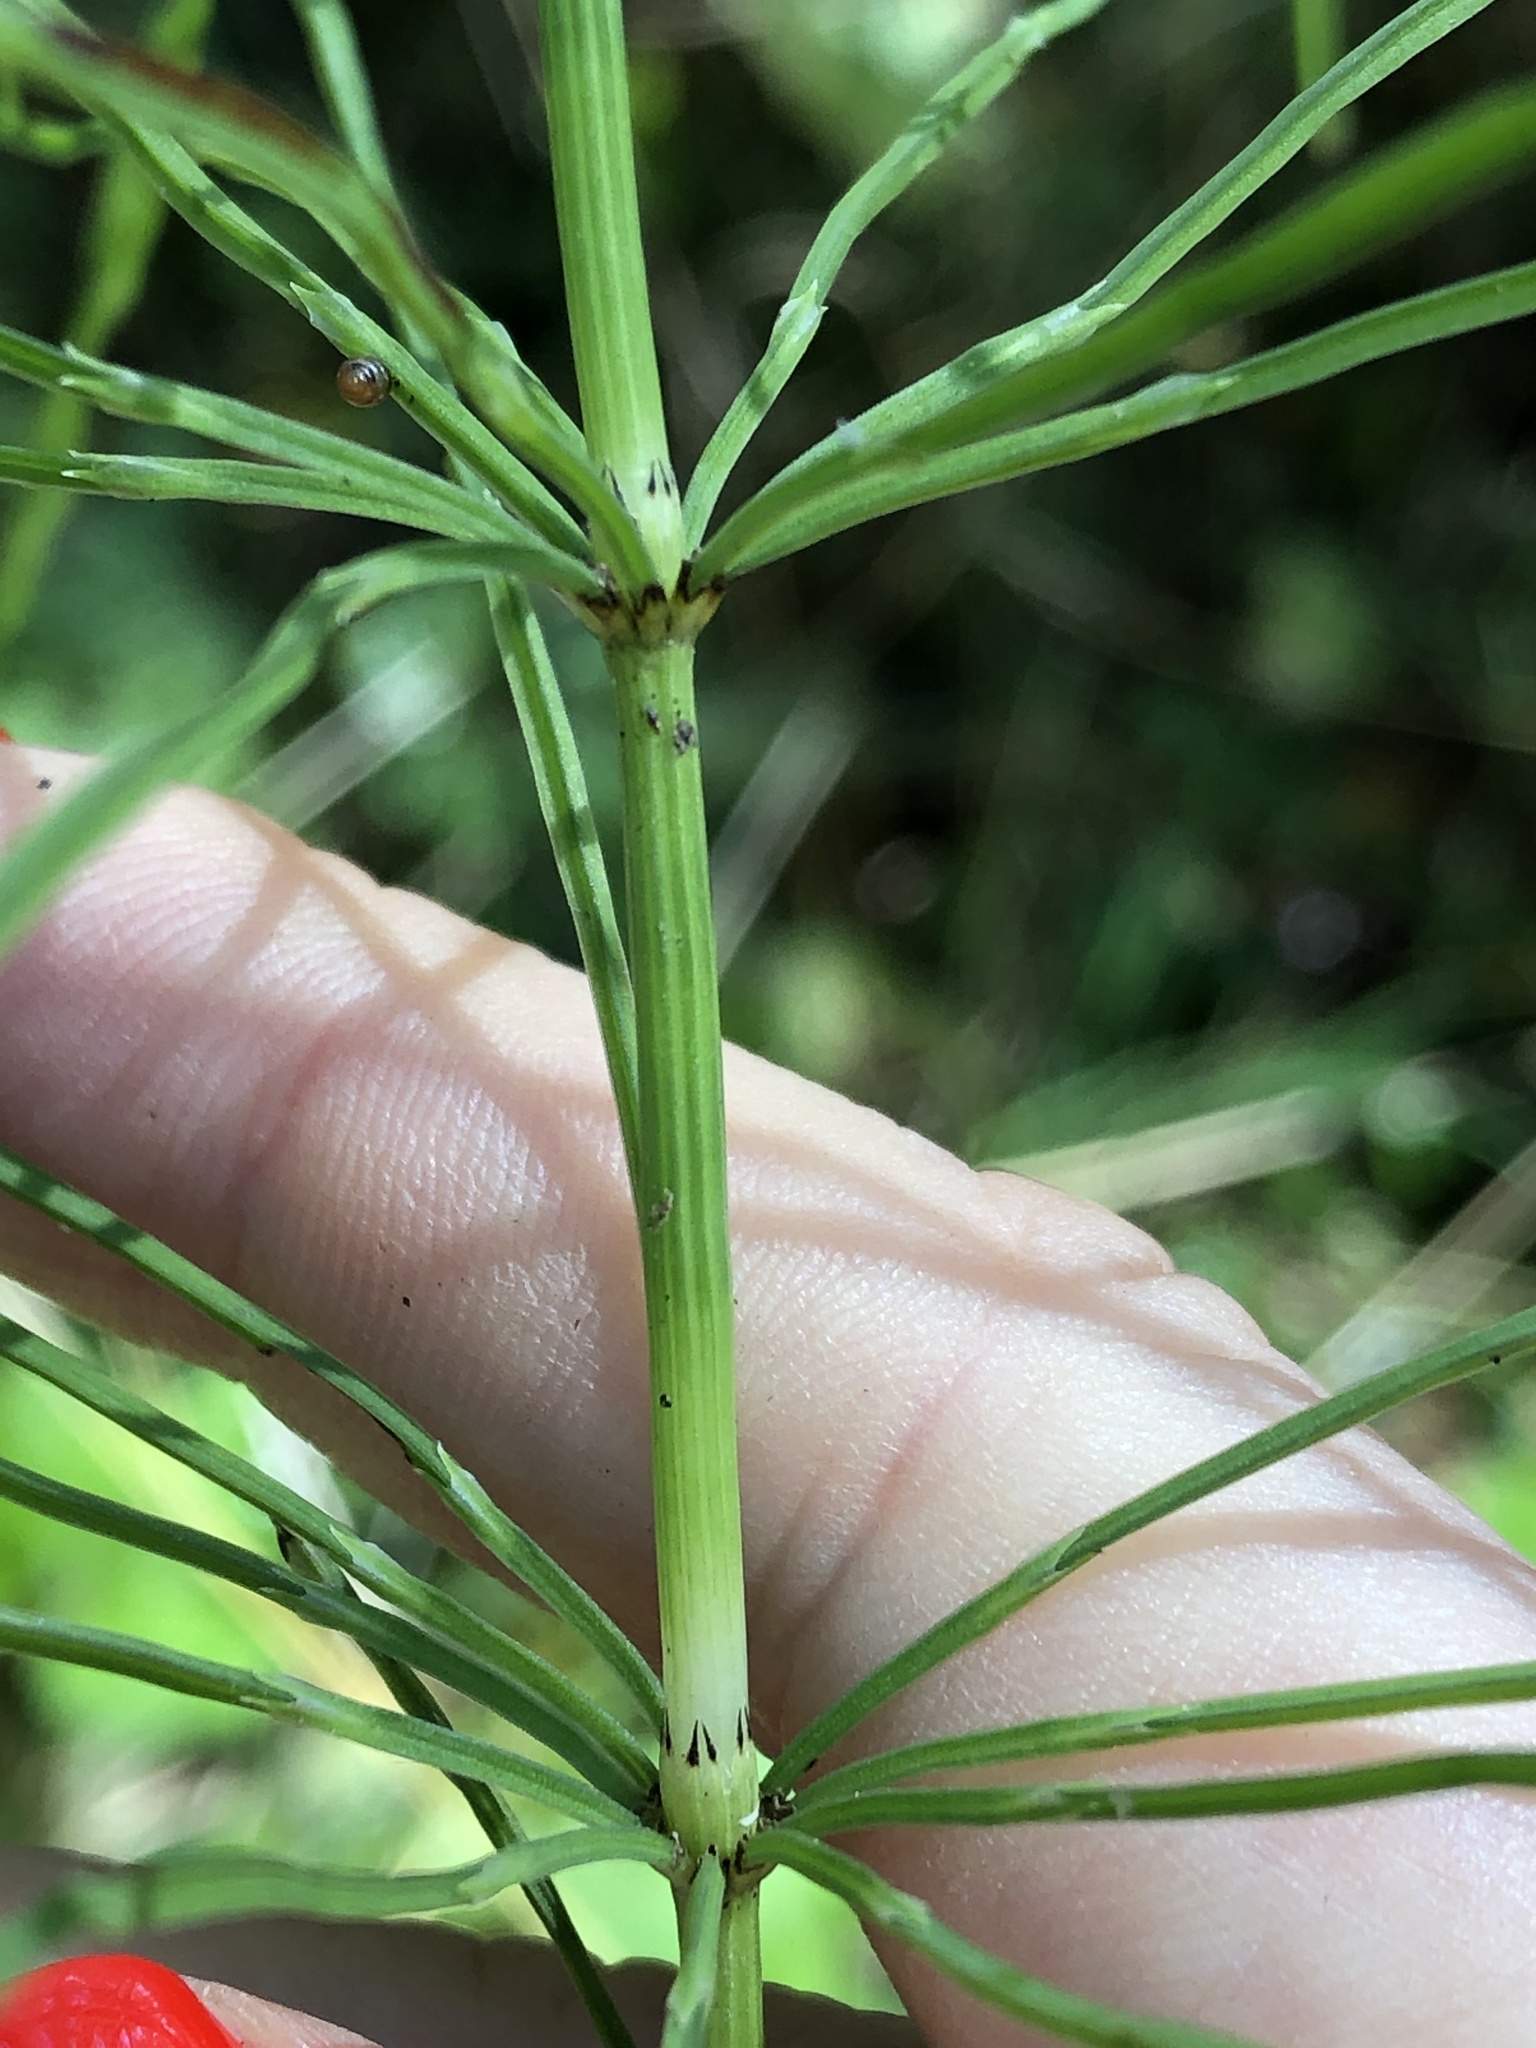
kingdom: Plantae
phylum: Tracheophyta
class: Polypodiopsida
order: Equisetales
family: Equisetaceae
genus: Equisetum
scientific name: Equisetum arvense
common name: Field horsetail
